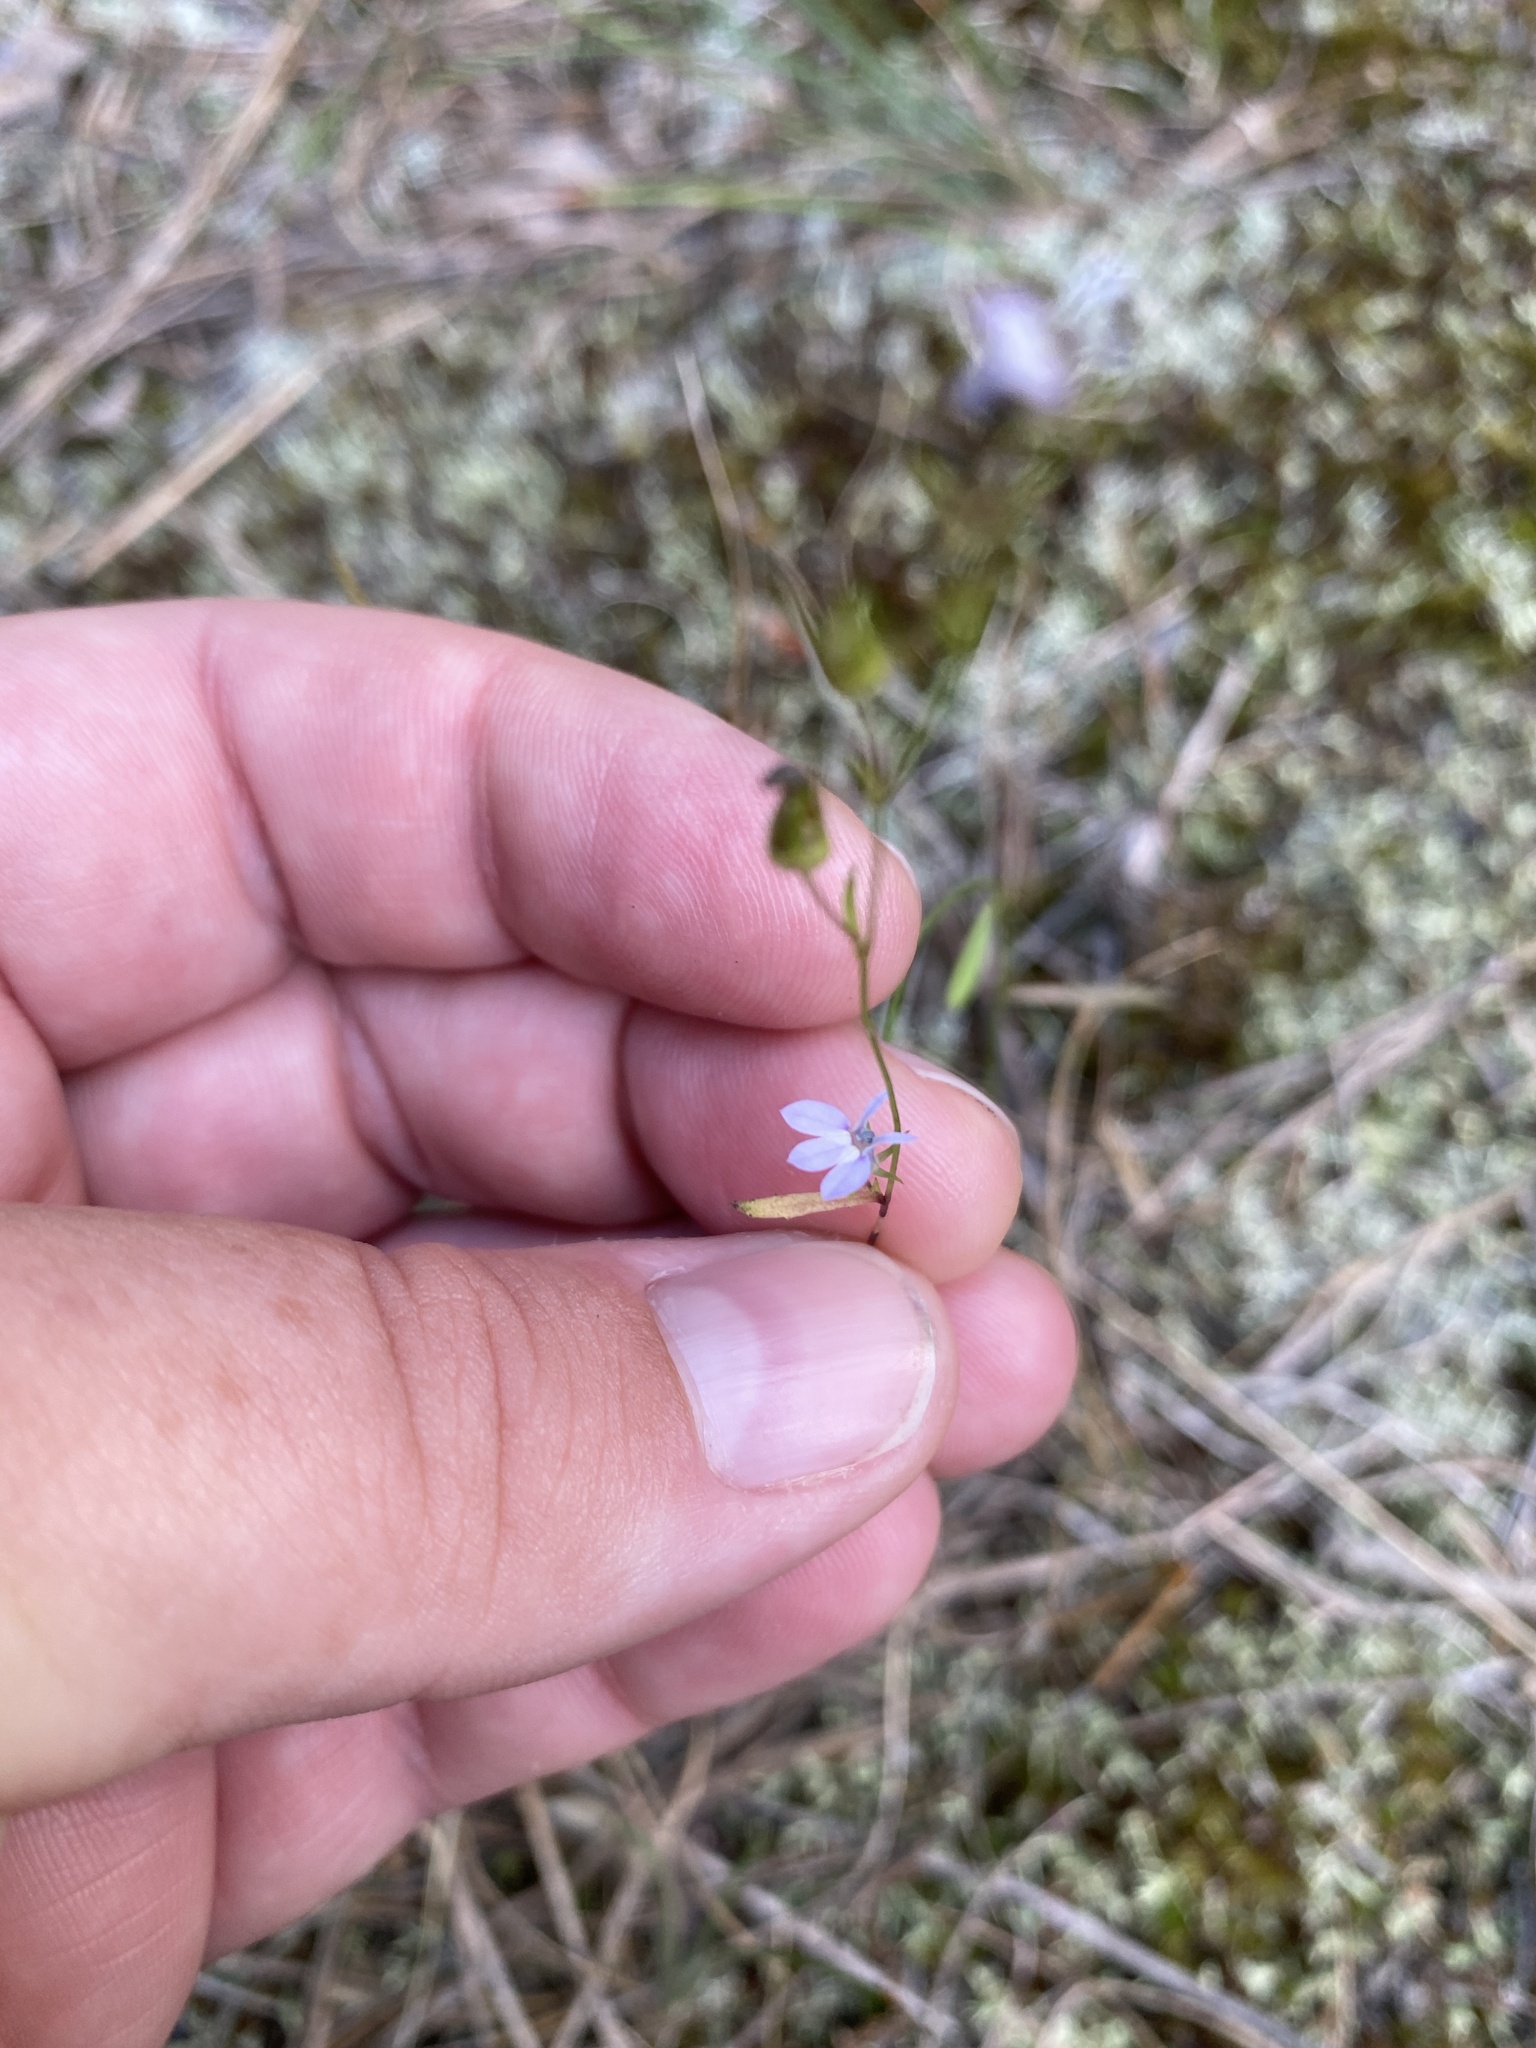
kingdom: Plantae
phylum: Tracheophyta
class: Magnoliopsida
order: Asterales
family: Campanulaceae
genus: Lobelia
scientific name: Lobelia nuttallii
